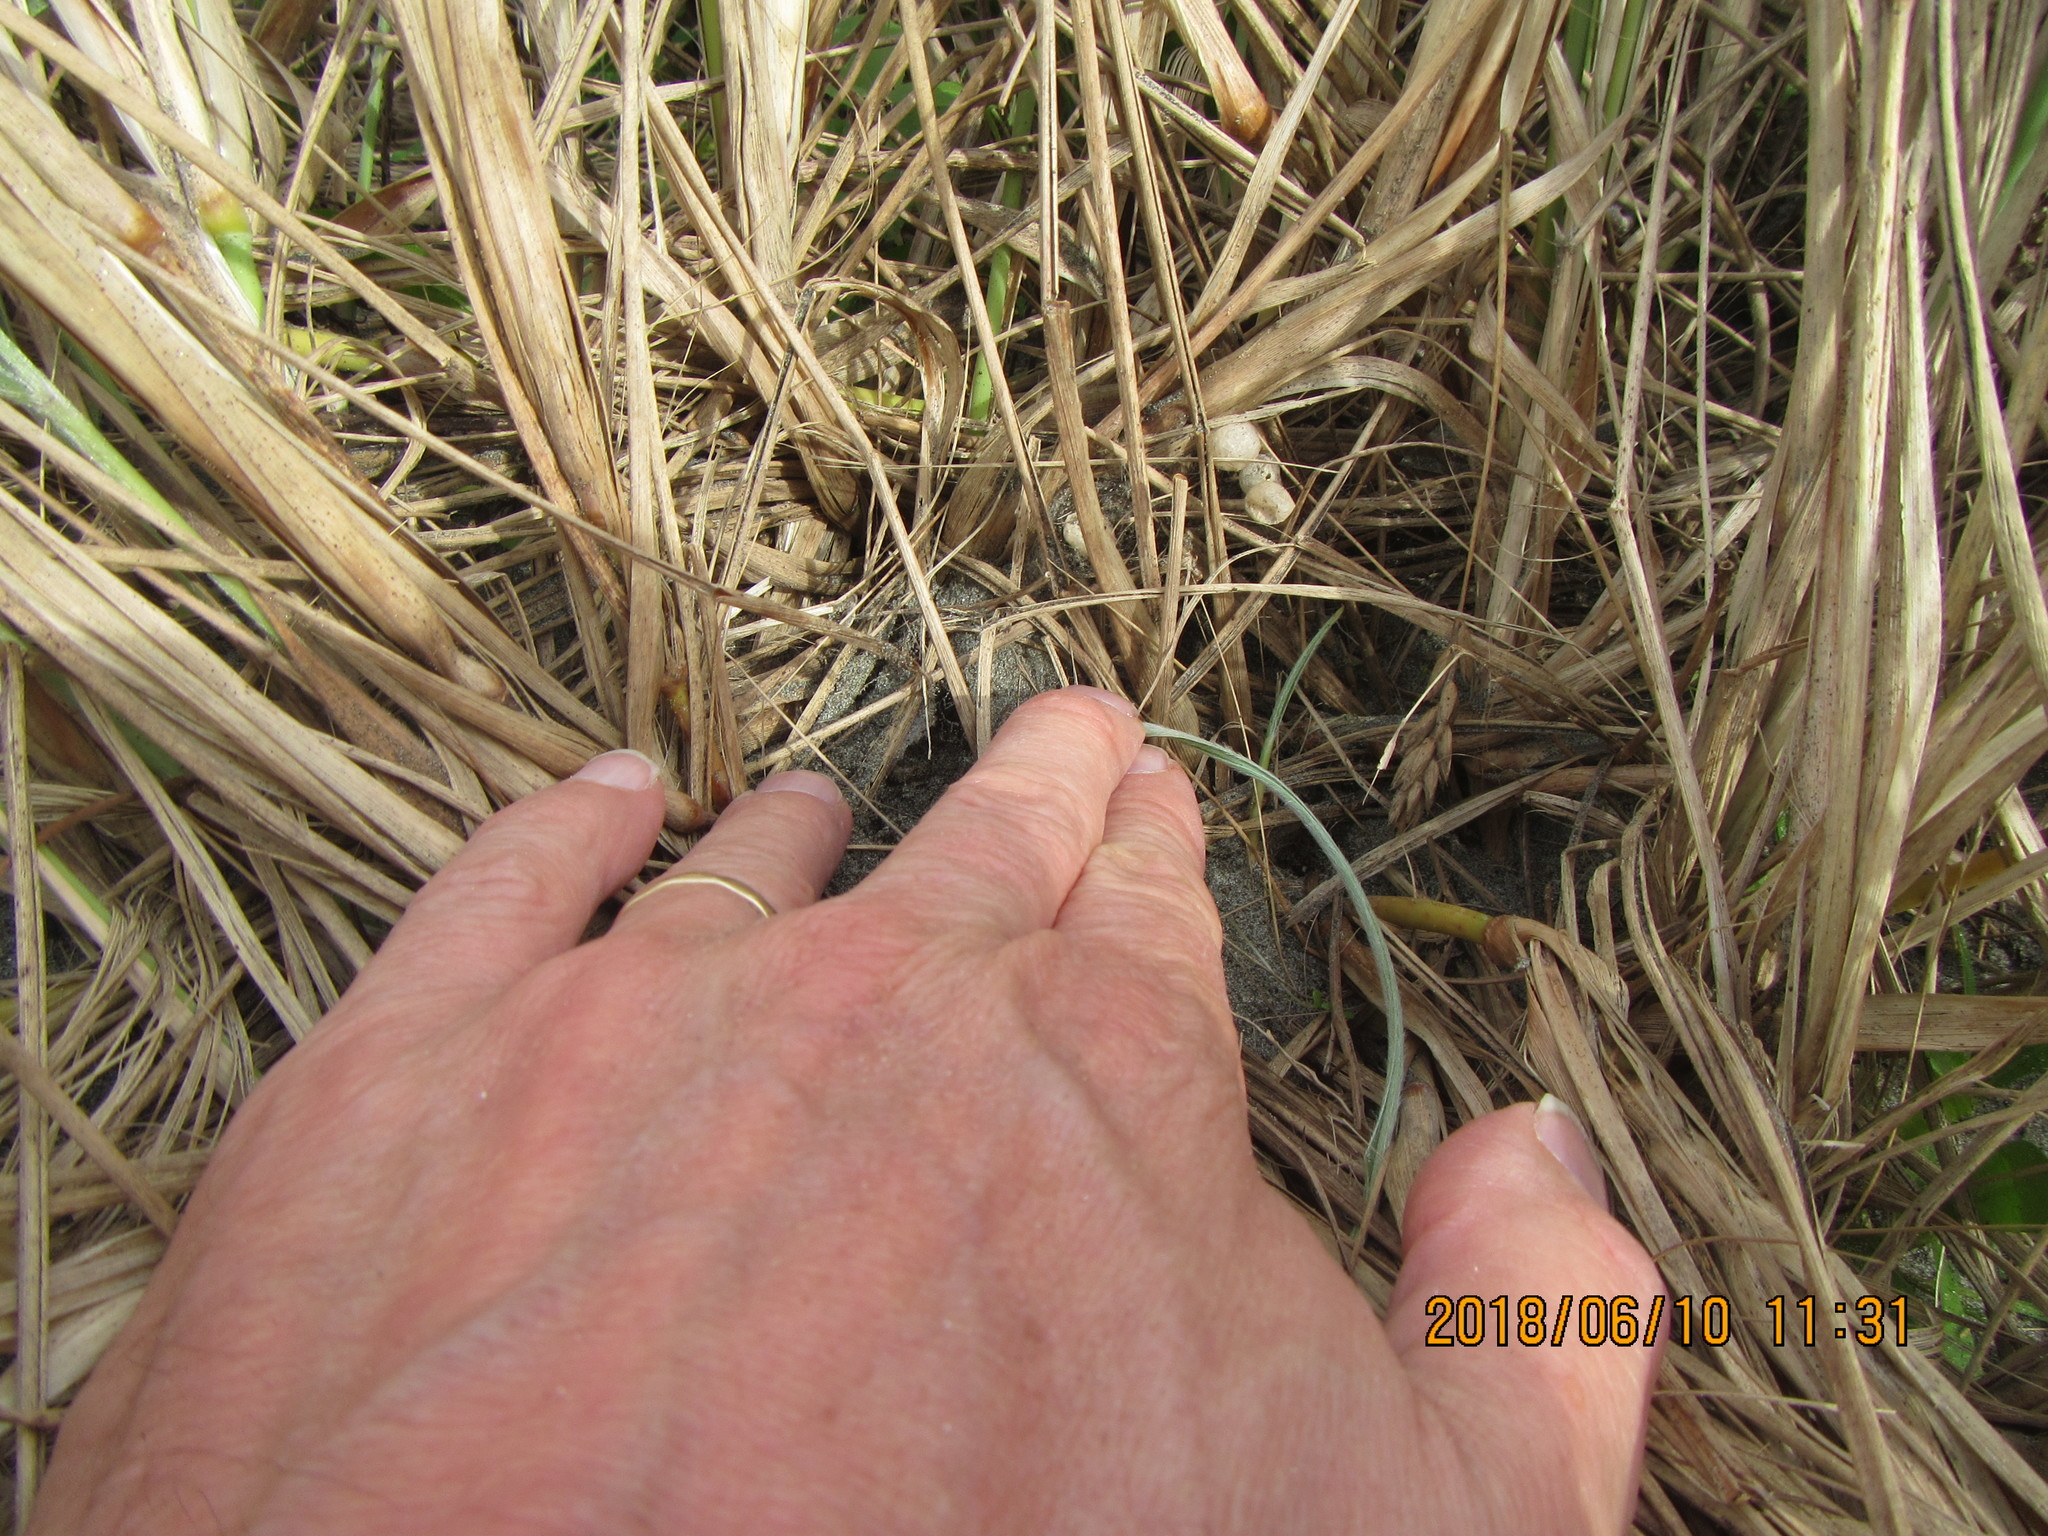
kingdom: Animalia
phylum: Arthropoda
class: Arachnida
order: Araneae
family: Theridiidae
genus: Steatoda
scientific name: Steatoda capensis
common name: Cobweb weaver
